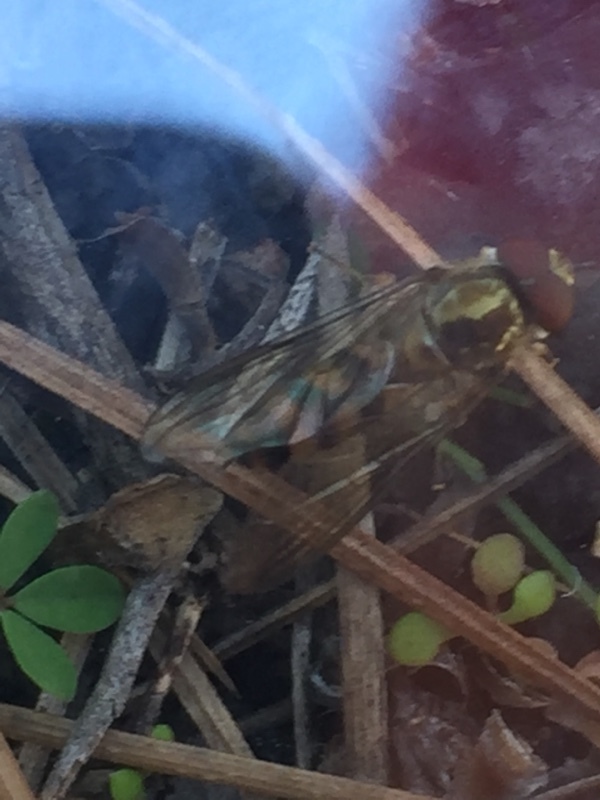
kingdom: Animalia
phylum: Arthropoda
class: Insecta
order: Diptera
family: Syrphidae
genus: Meliscaeva
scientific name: Meliscaeva auricollis
